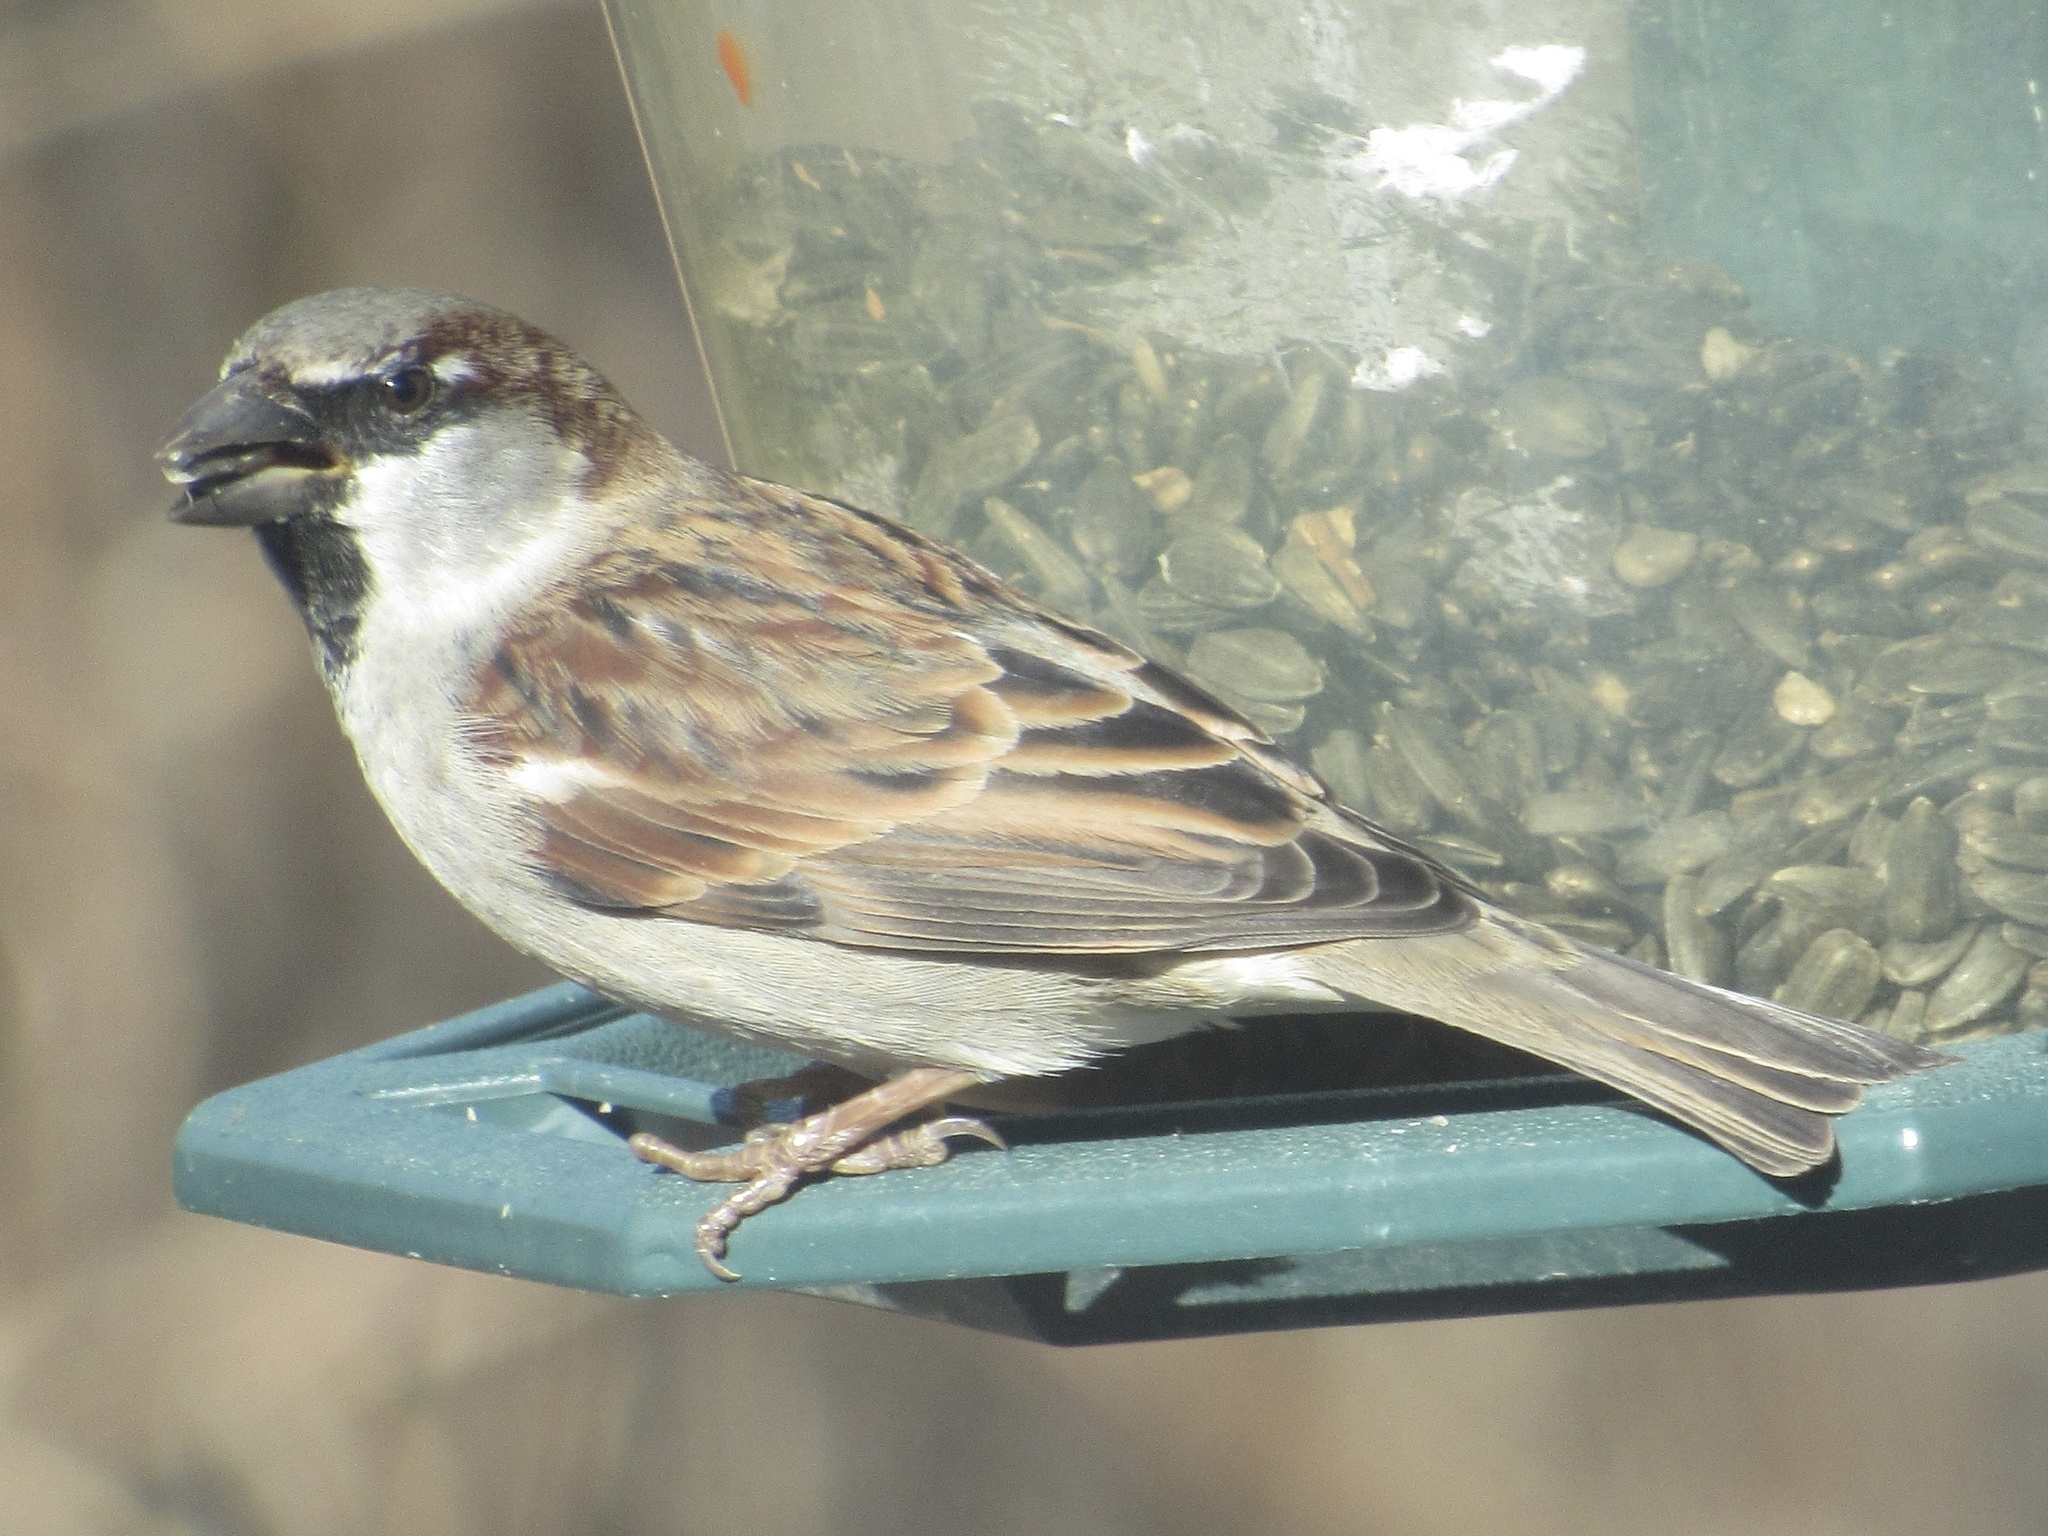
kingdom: Animalia
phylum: Chordata
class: Aves
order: Passeriformes
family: Passeridae
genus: Passer
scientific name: Passer domesticus
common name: House sparrow
